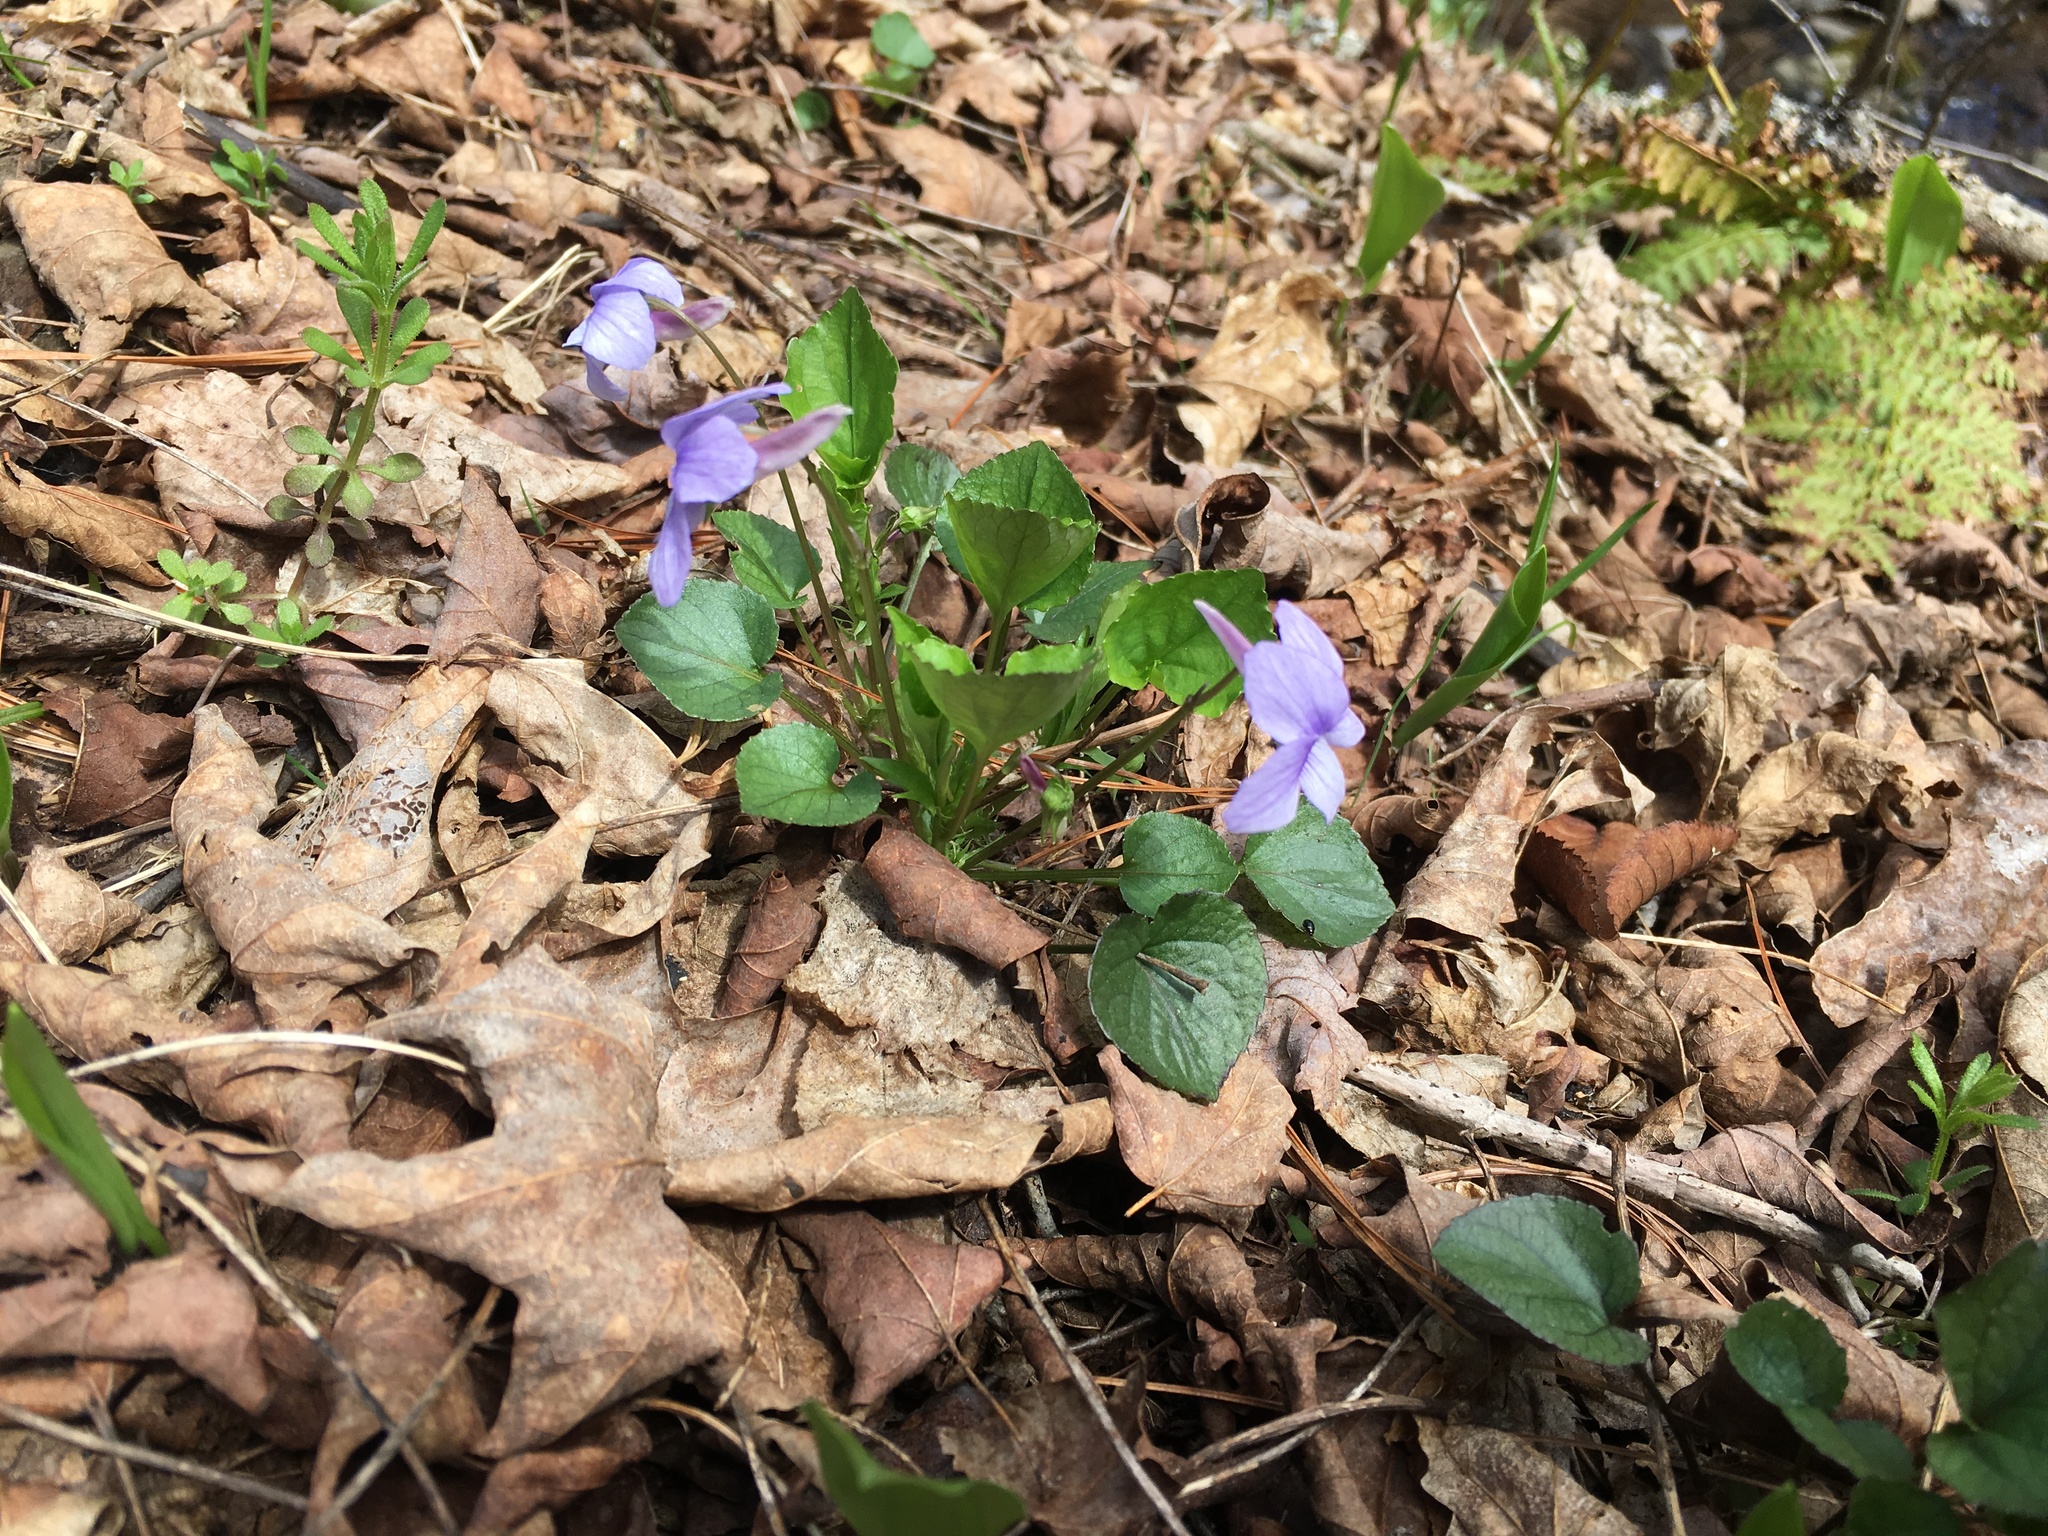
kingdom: Plantae
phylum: Tracheophyta
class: Magnoliopsida
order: Malpighiales
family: Violaceae
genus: Viola
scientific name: Viola rostrata
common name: Long-spur violet
